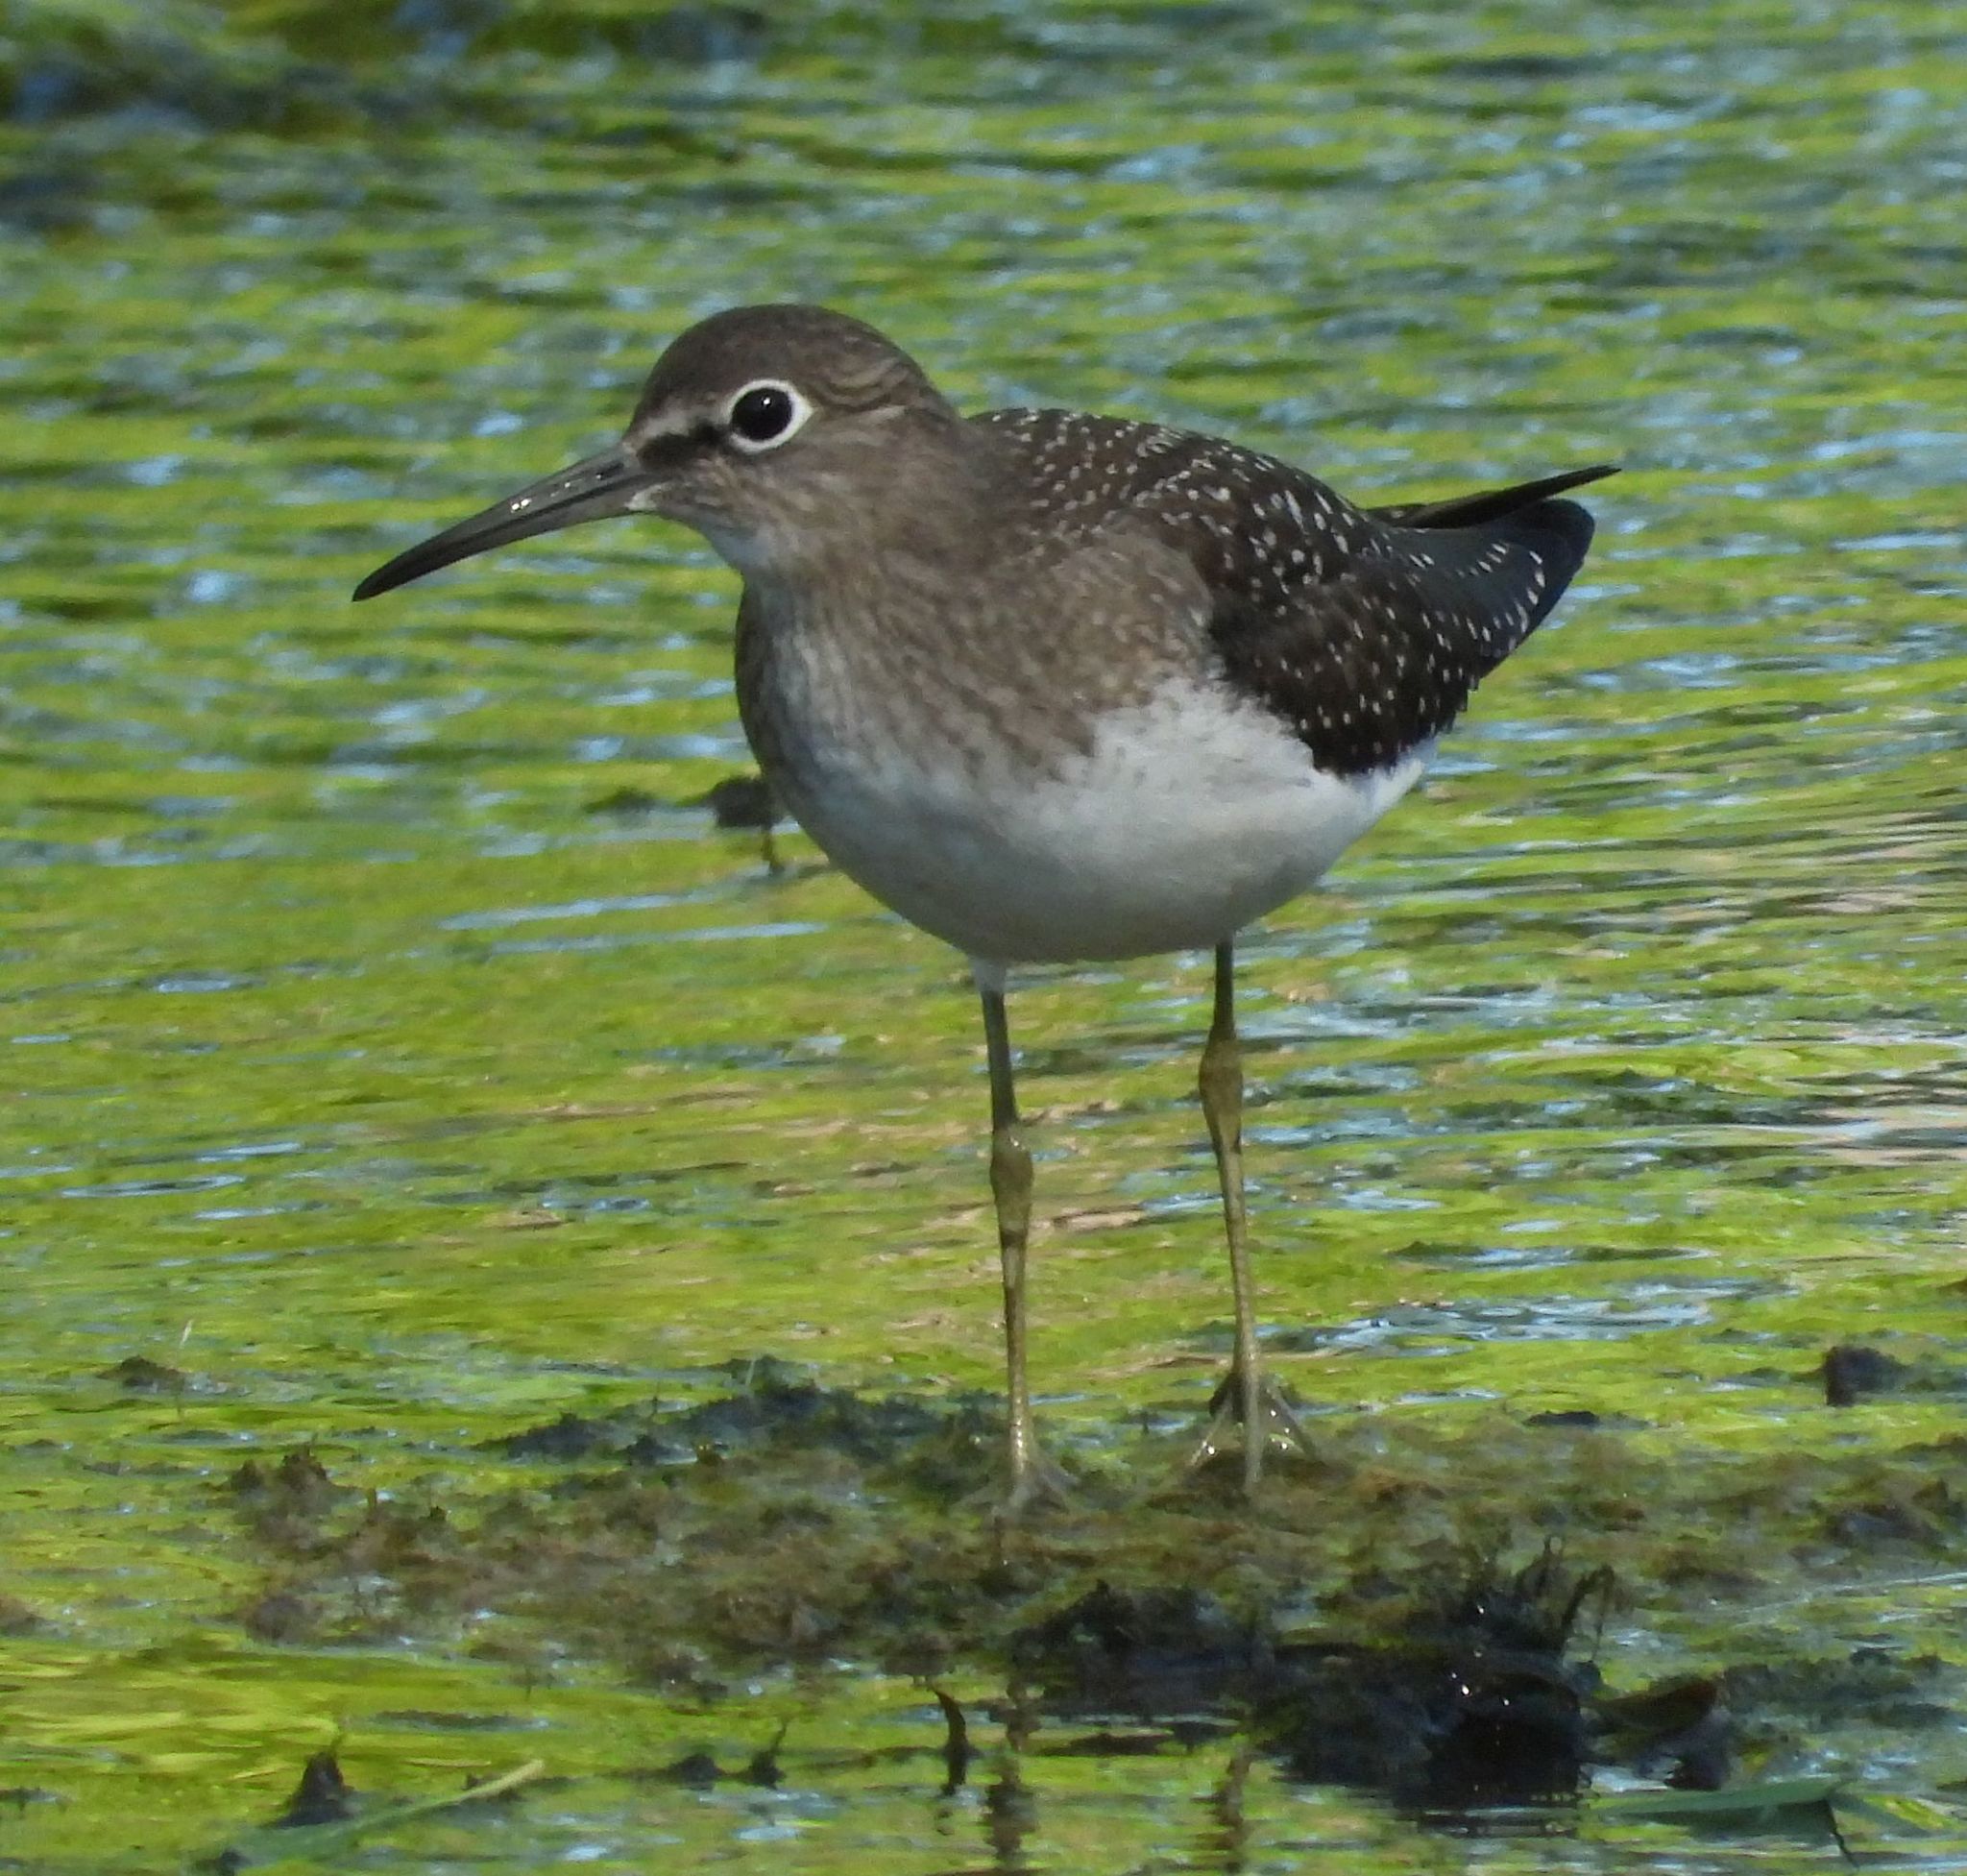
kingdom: Animalia
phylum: Chordata
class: Aves
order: Charadriiformes
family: Scolopacidae
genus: Tringa
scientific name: Tringa solitaria
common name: Solitary sandpiper
